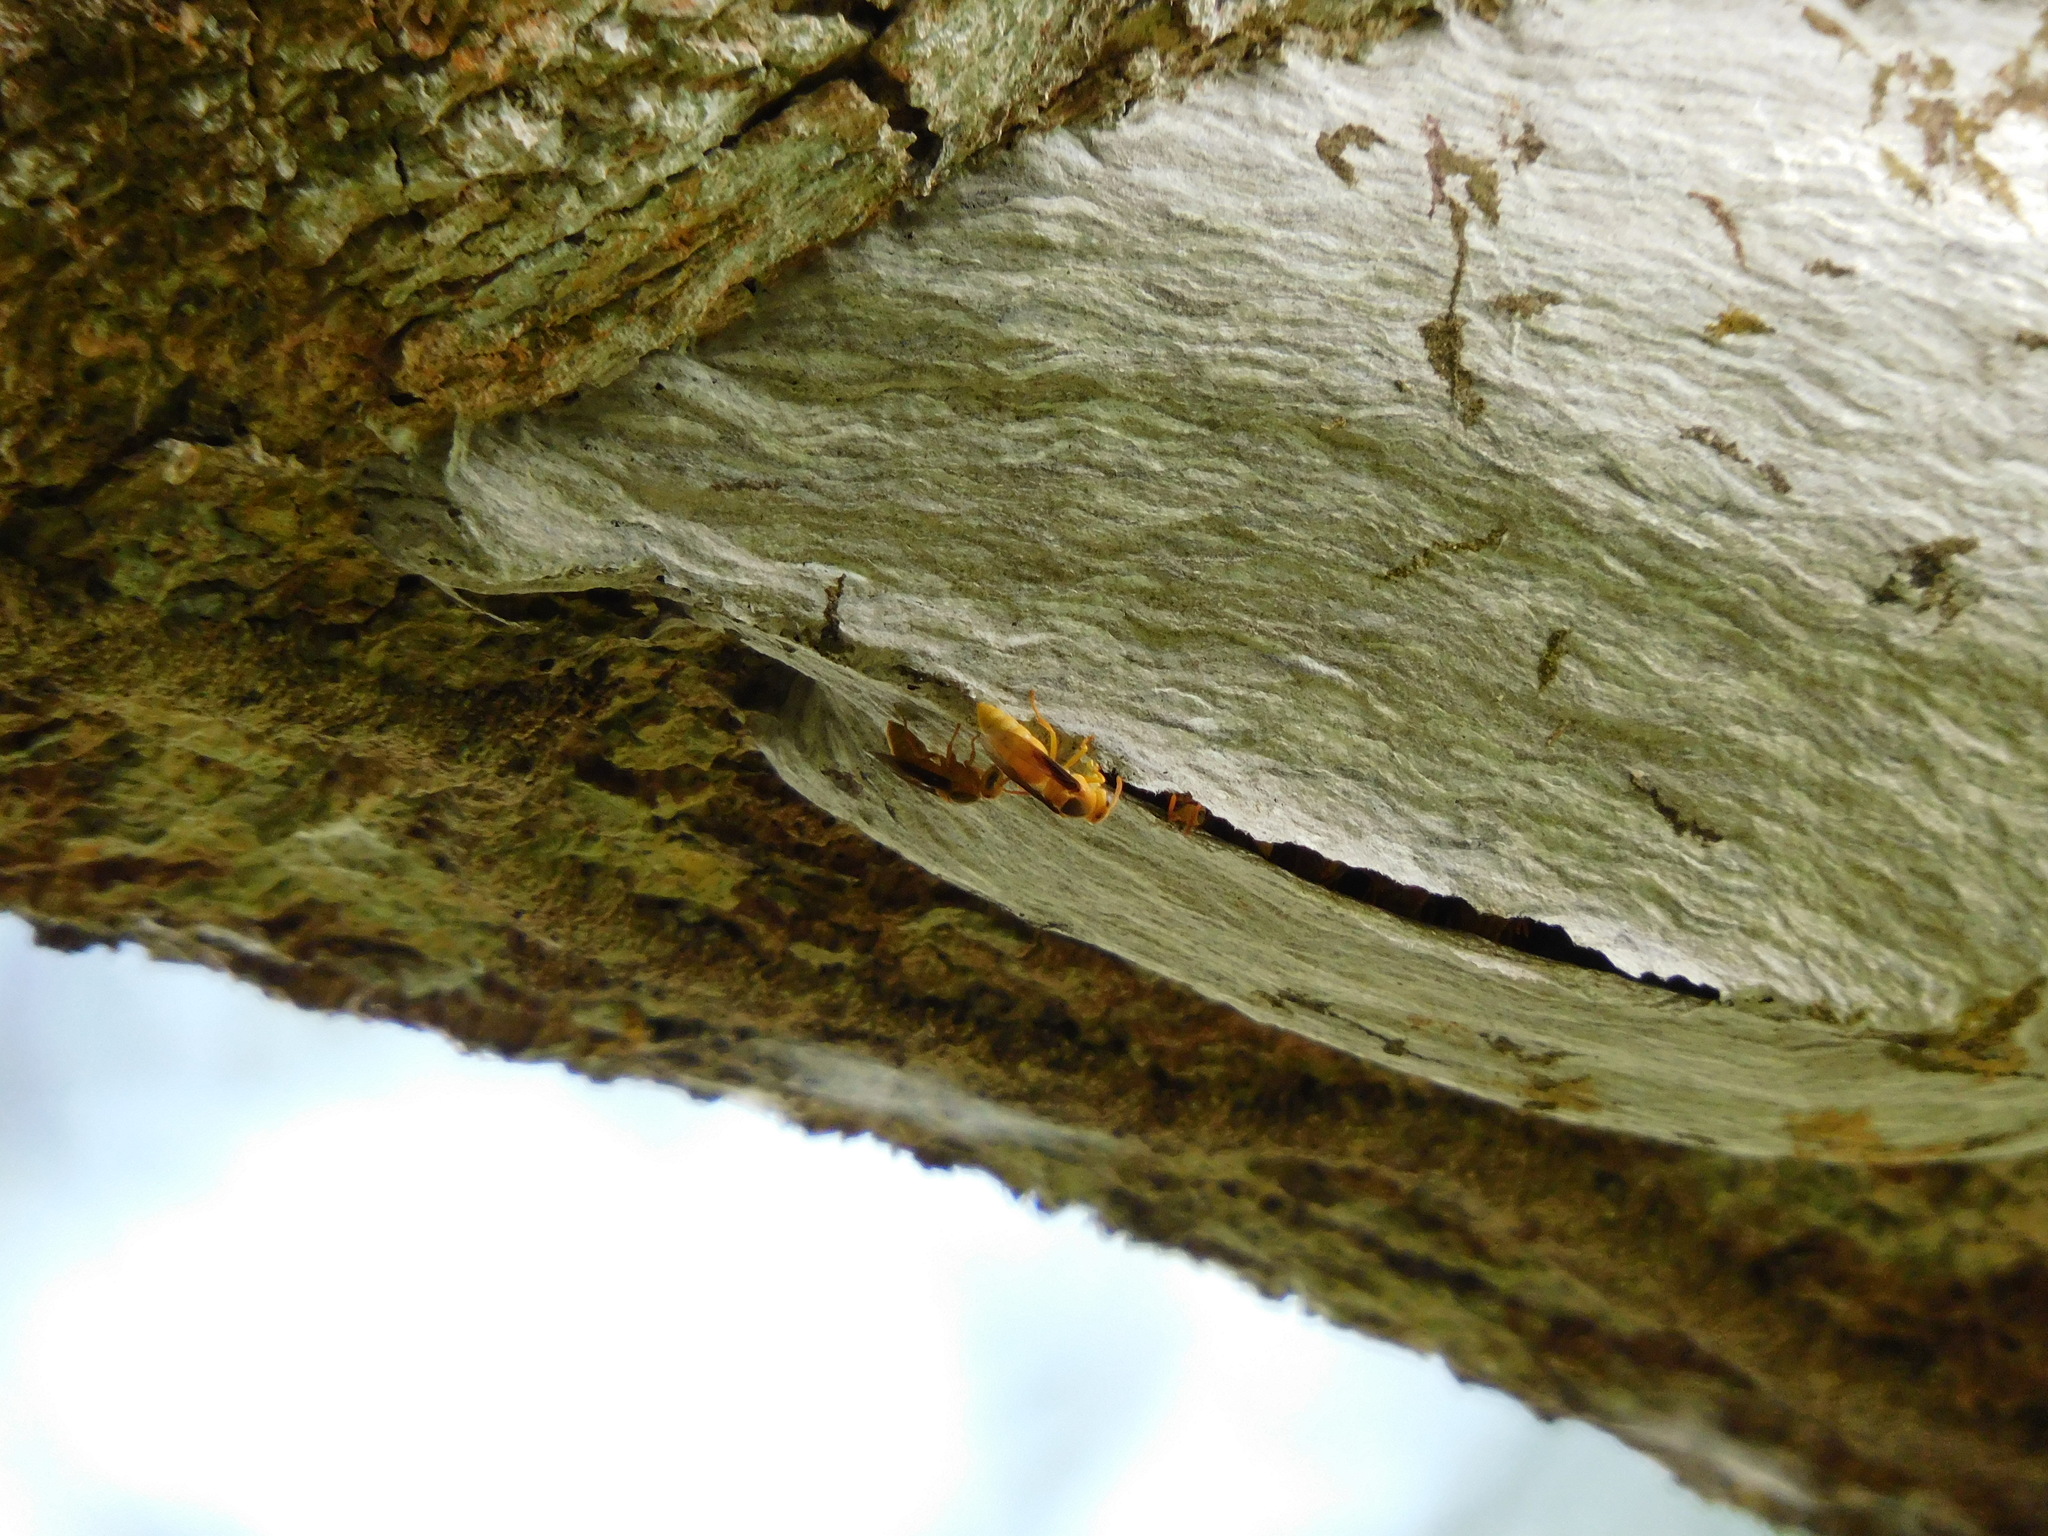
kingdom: Animalia
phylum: Arthropoda
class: Insecta
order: Hymenoptera
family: Vespidae
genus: Parachartergus
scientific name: Parachartergus colobopterus
